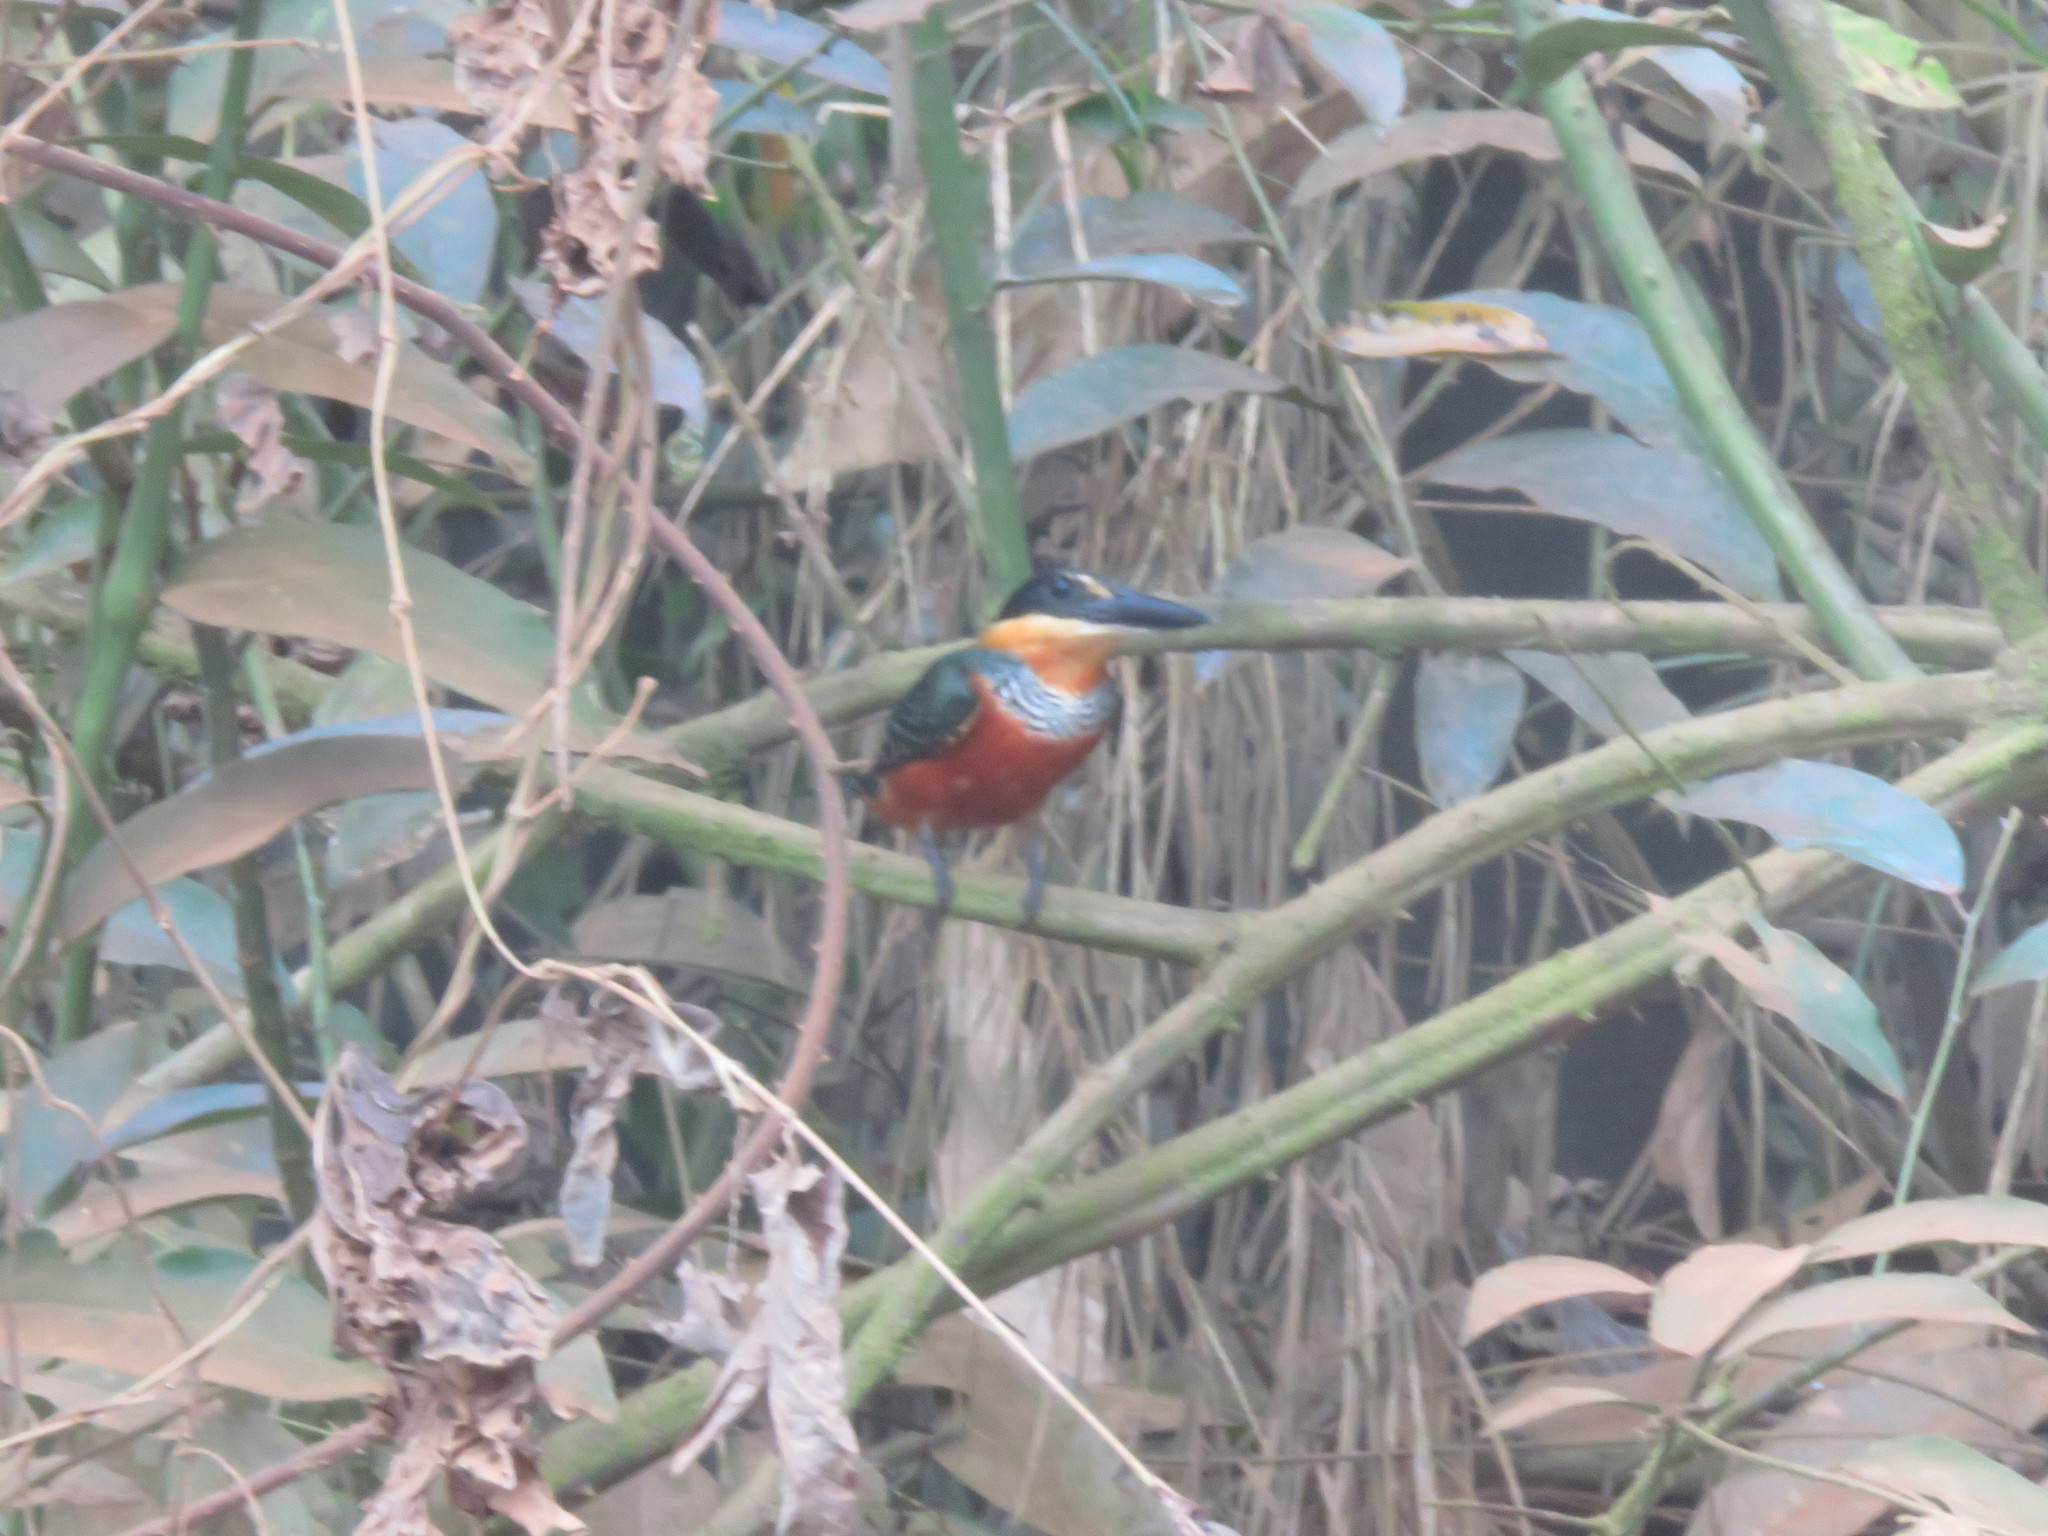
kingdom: Animalia
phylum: Chordata
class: Aves
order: Coraciiformes
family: Alcedinidae
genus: Chloroceryle
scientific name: Chloroceryle inda
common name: Green-and-rufous kingfisher
